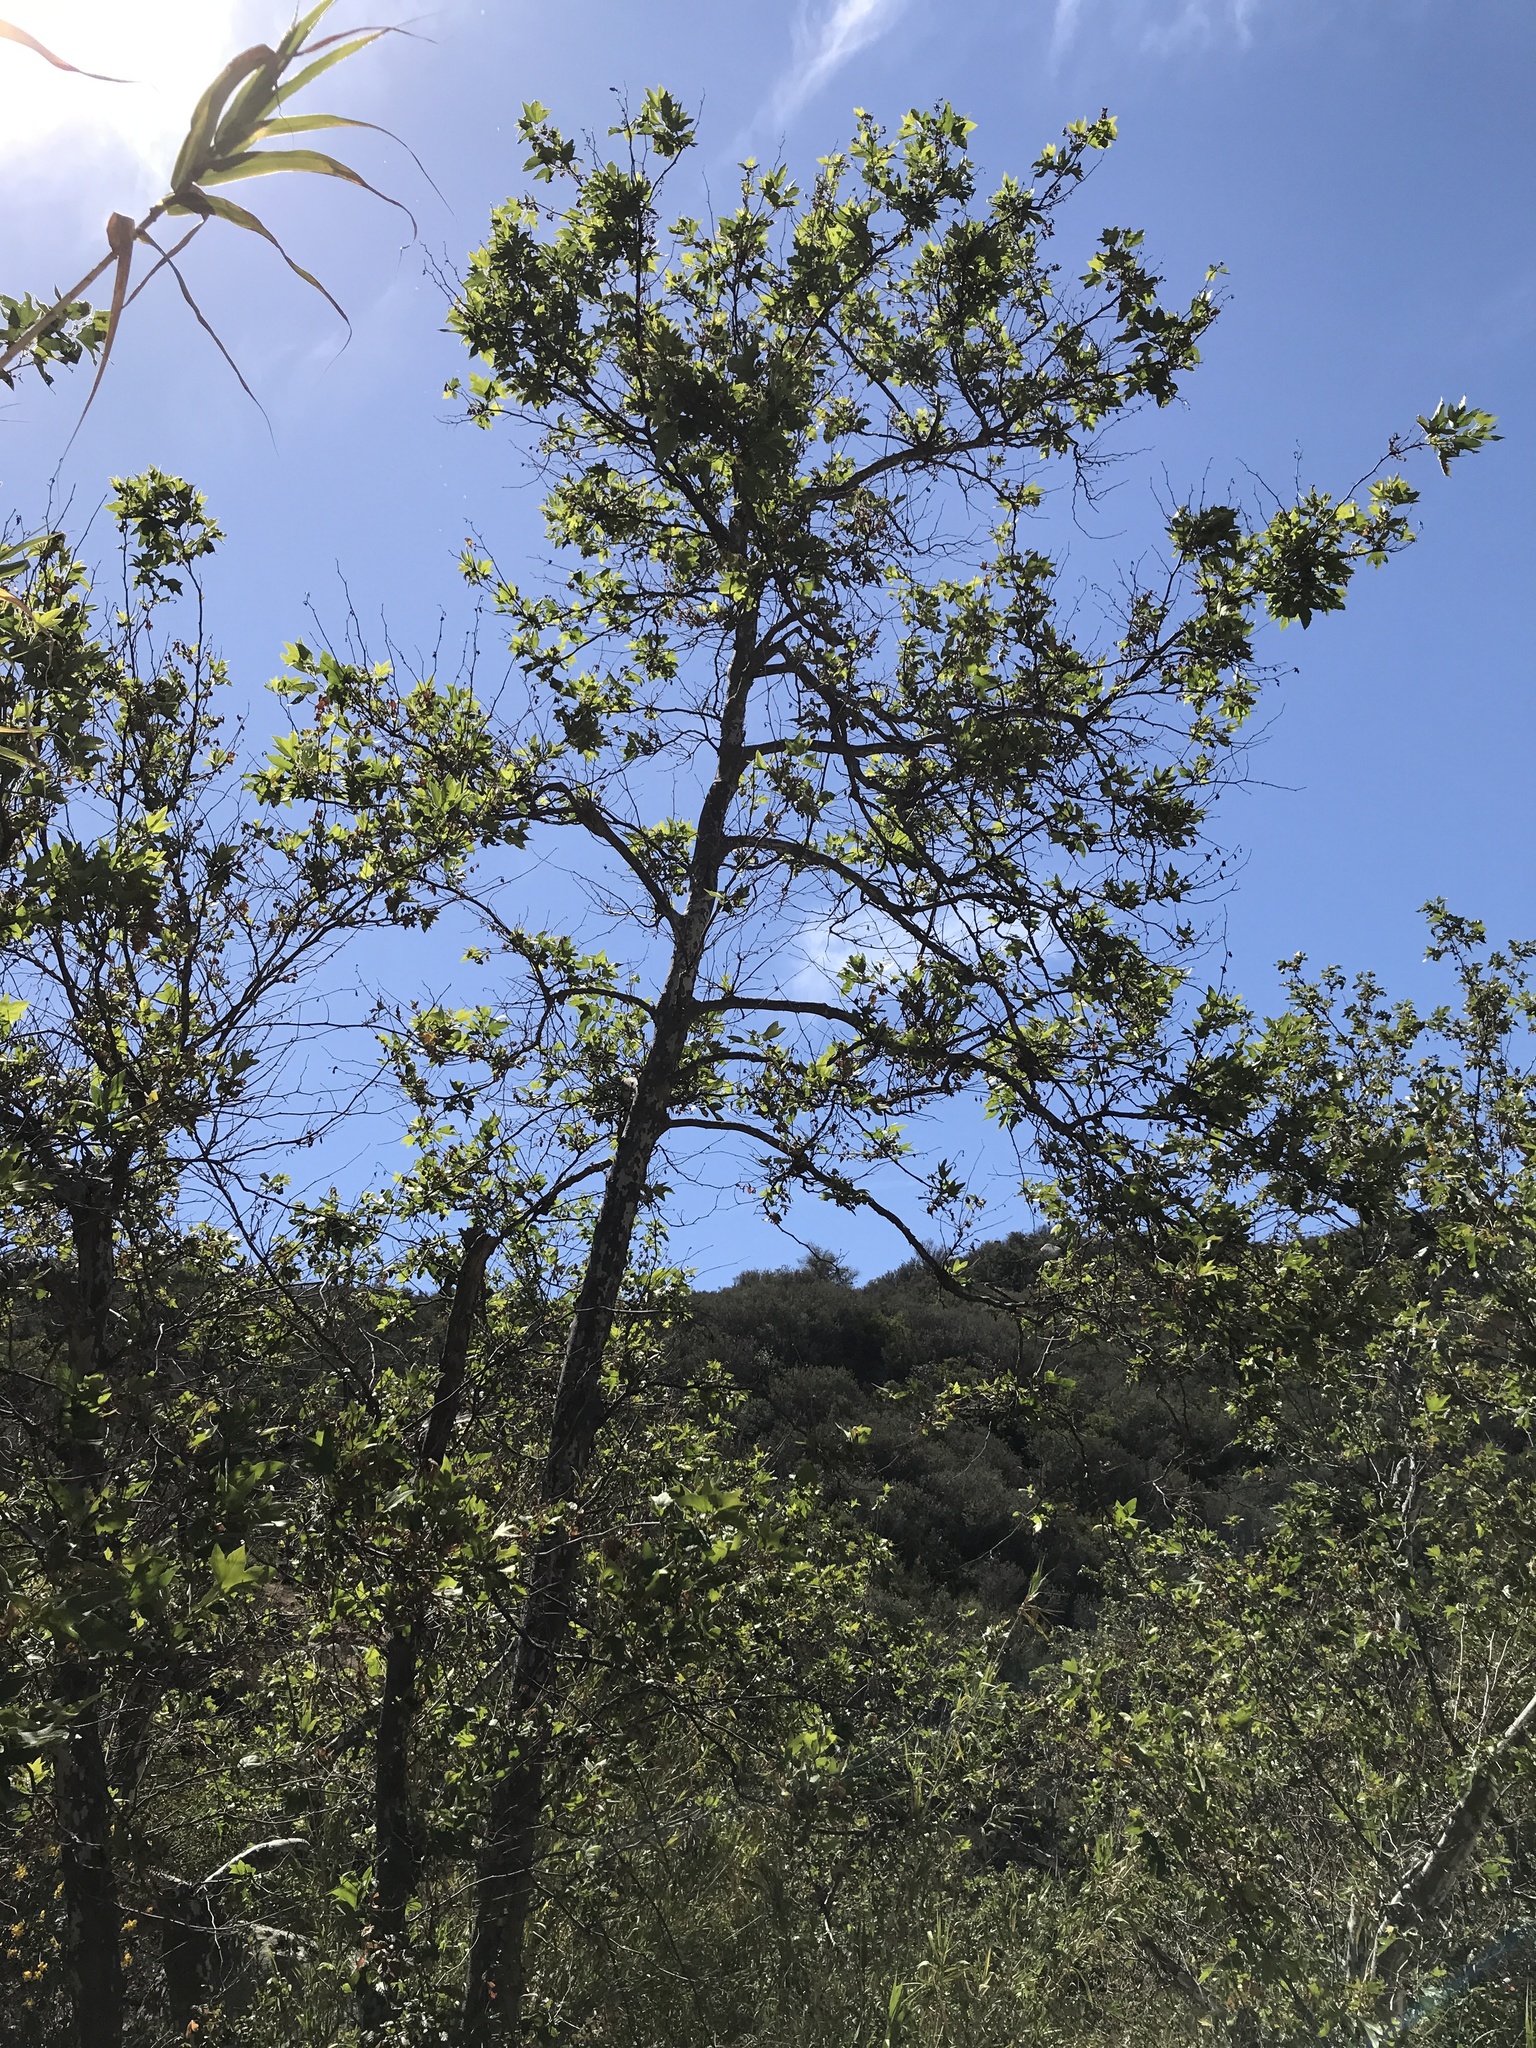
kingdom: Plantae
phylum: Tracheophyta
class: Magnoliopsida
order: Proteales
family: Platanaceae
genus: Platanus
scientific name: Platanus racemosa
